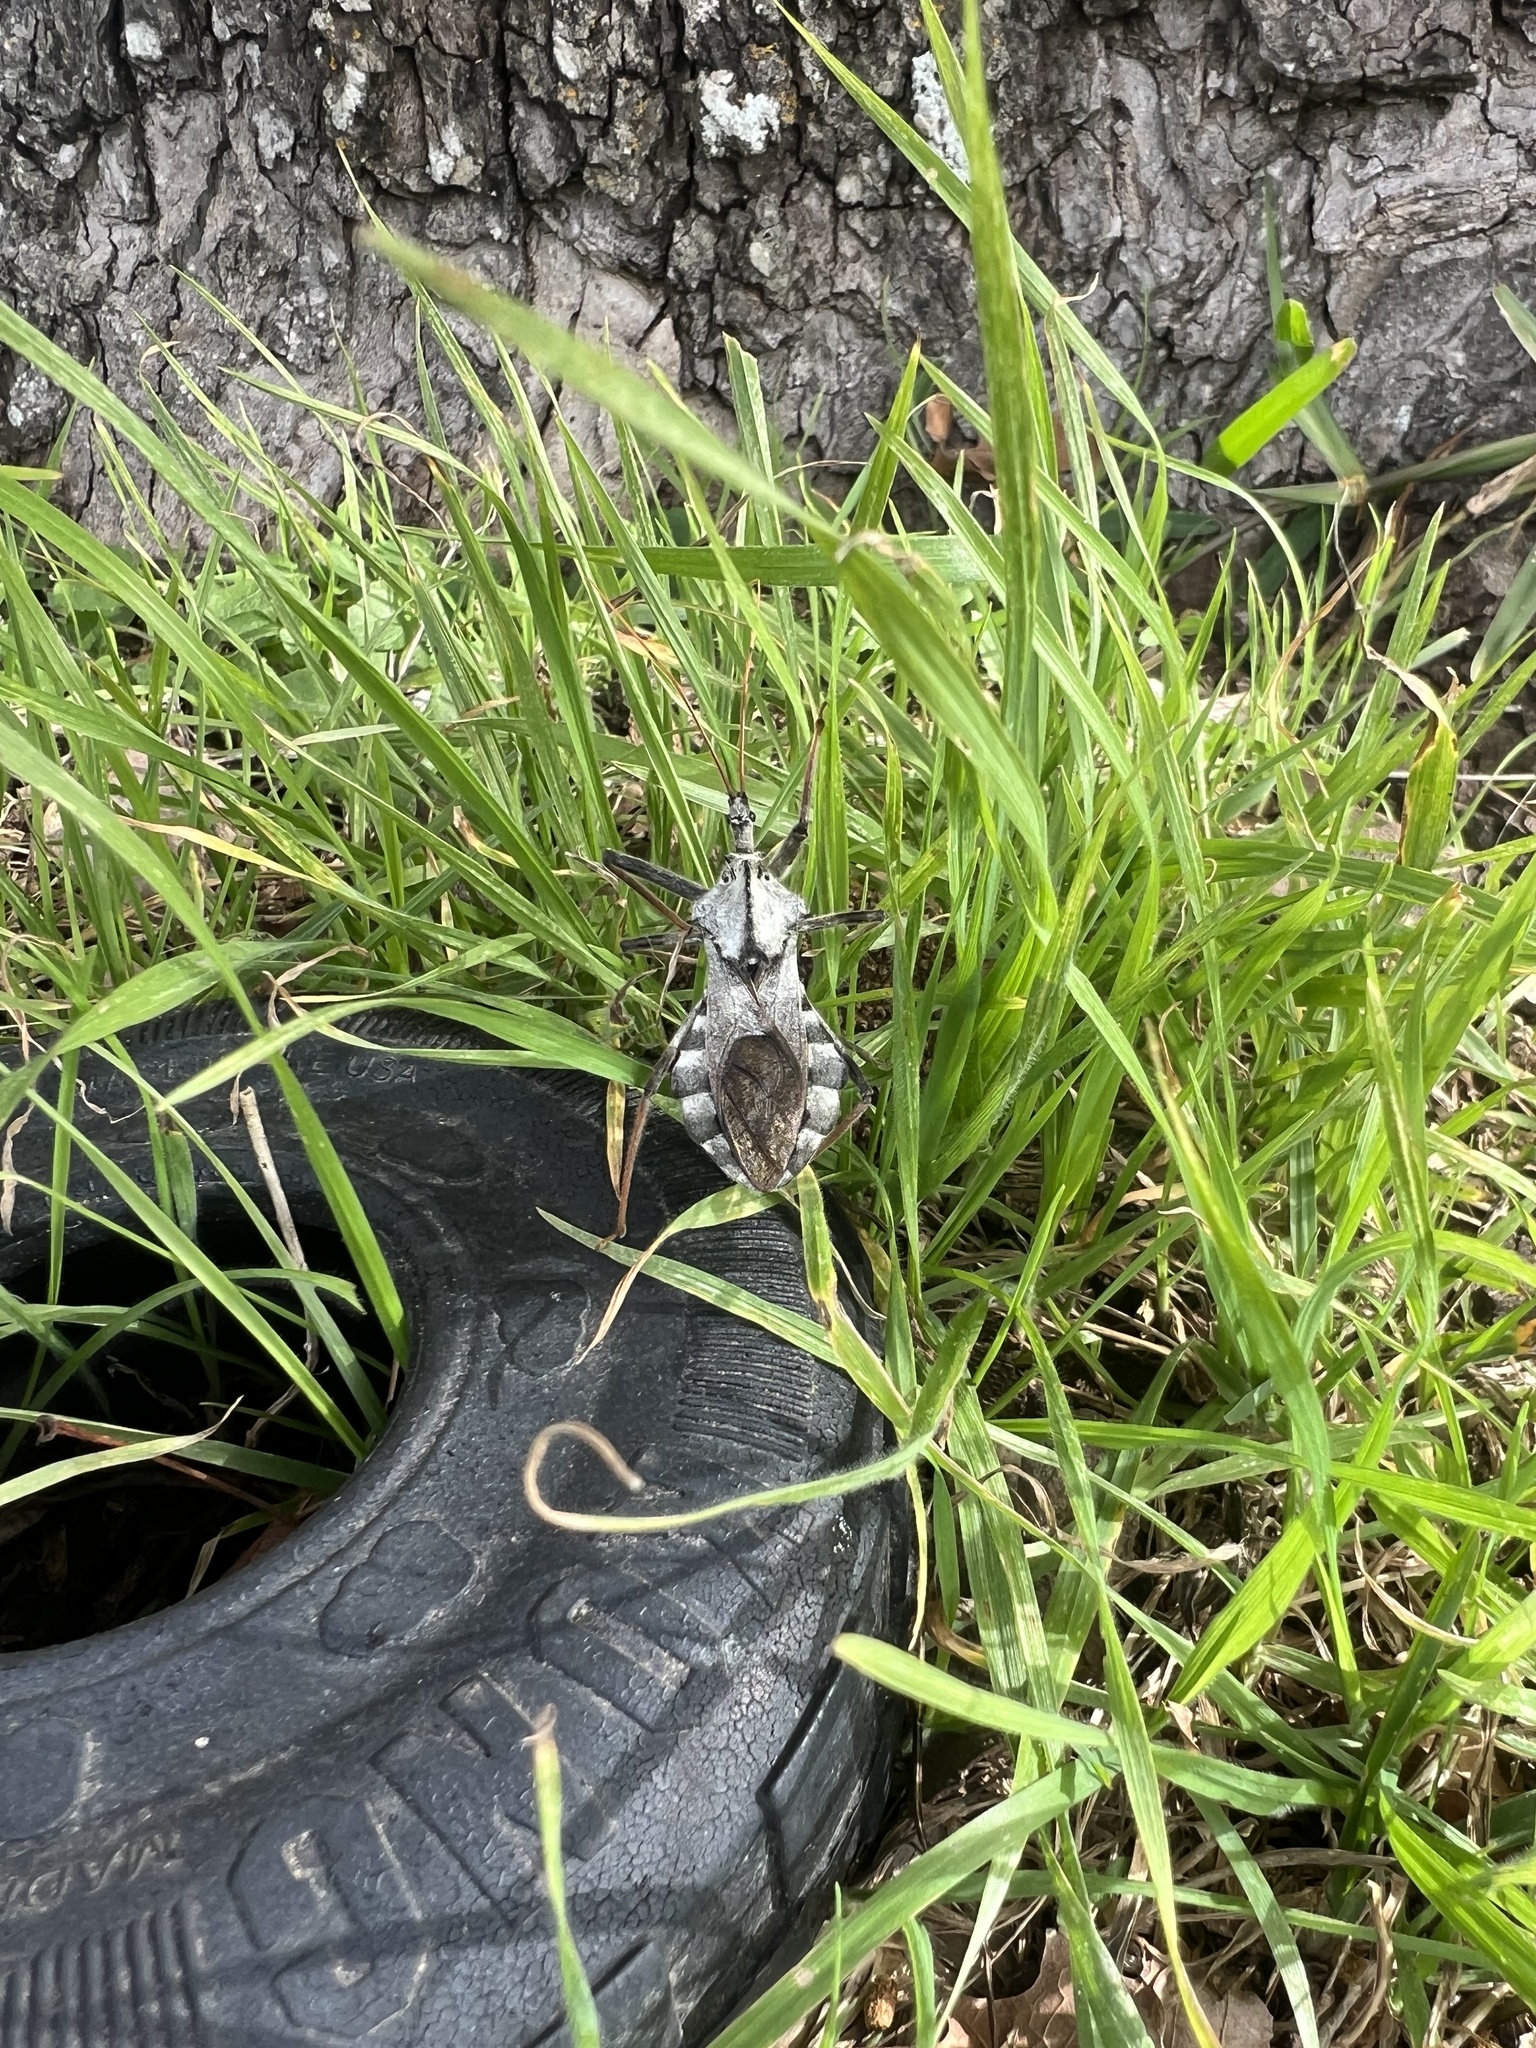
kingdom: Animalia
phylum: Arthropoda
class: Insecta
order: Hemiptera
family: Reduviidae
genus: Arilus
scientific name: Arilus cristatus
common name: North american wheel bug
